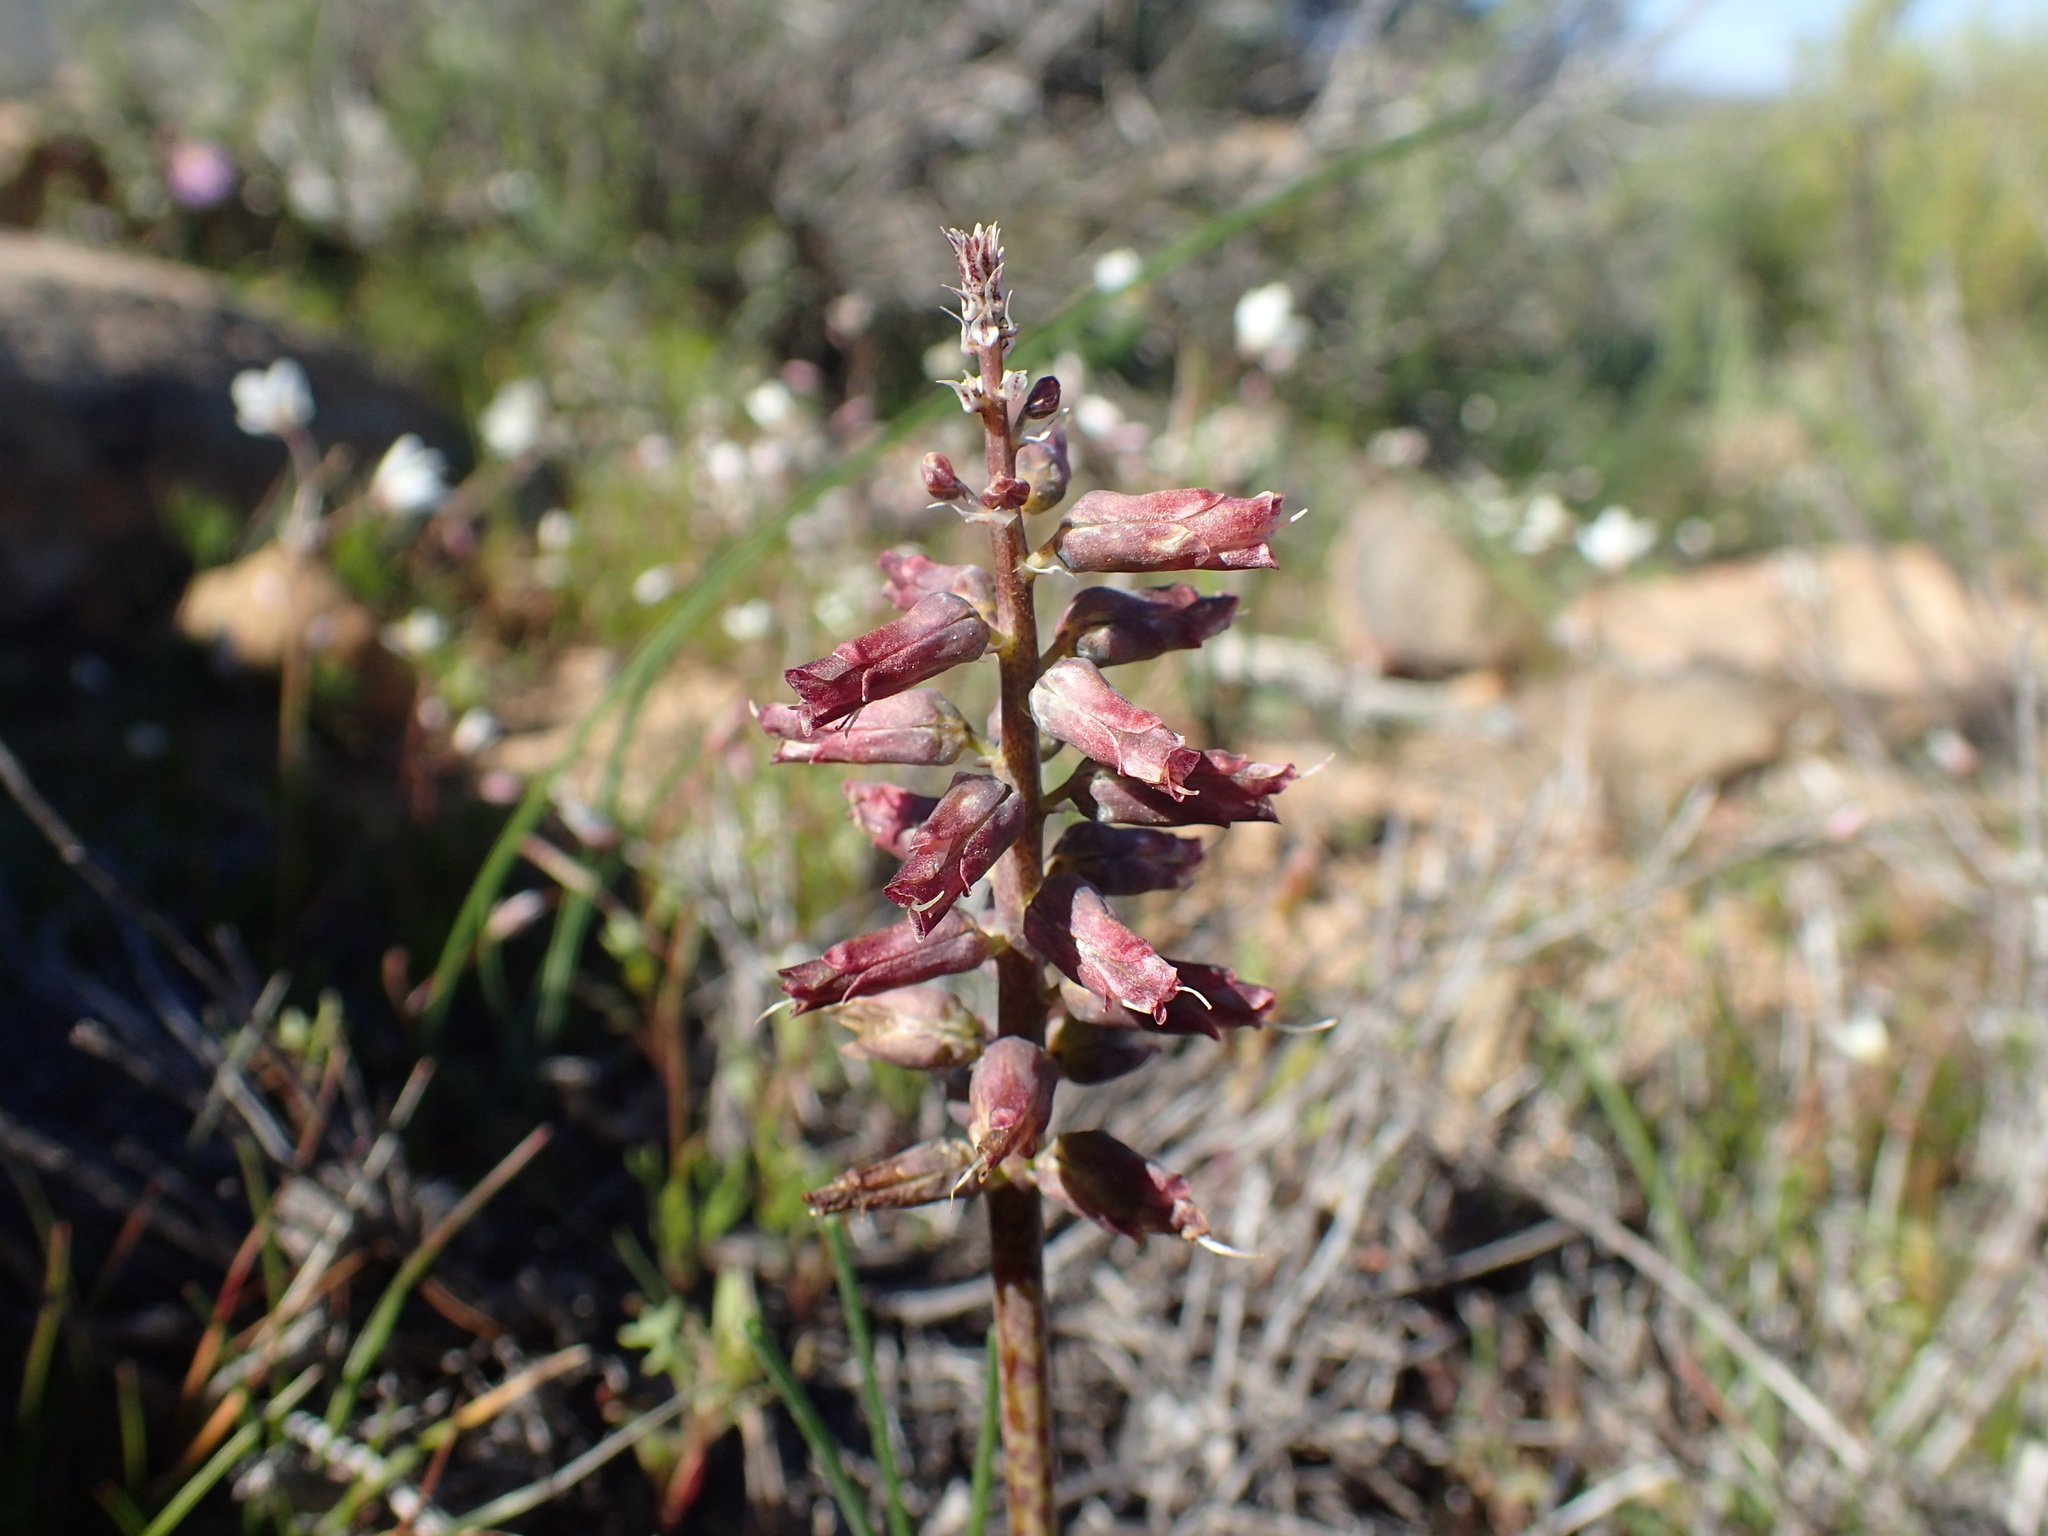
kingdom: Plantae
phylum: Tracheophyta
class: Liliopsida
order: Asparagales
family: Asparagaceae
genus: Lachenalia
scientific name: Lachenalia aurioliae
